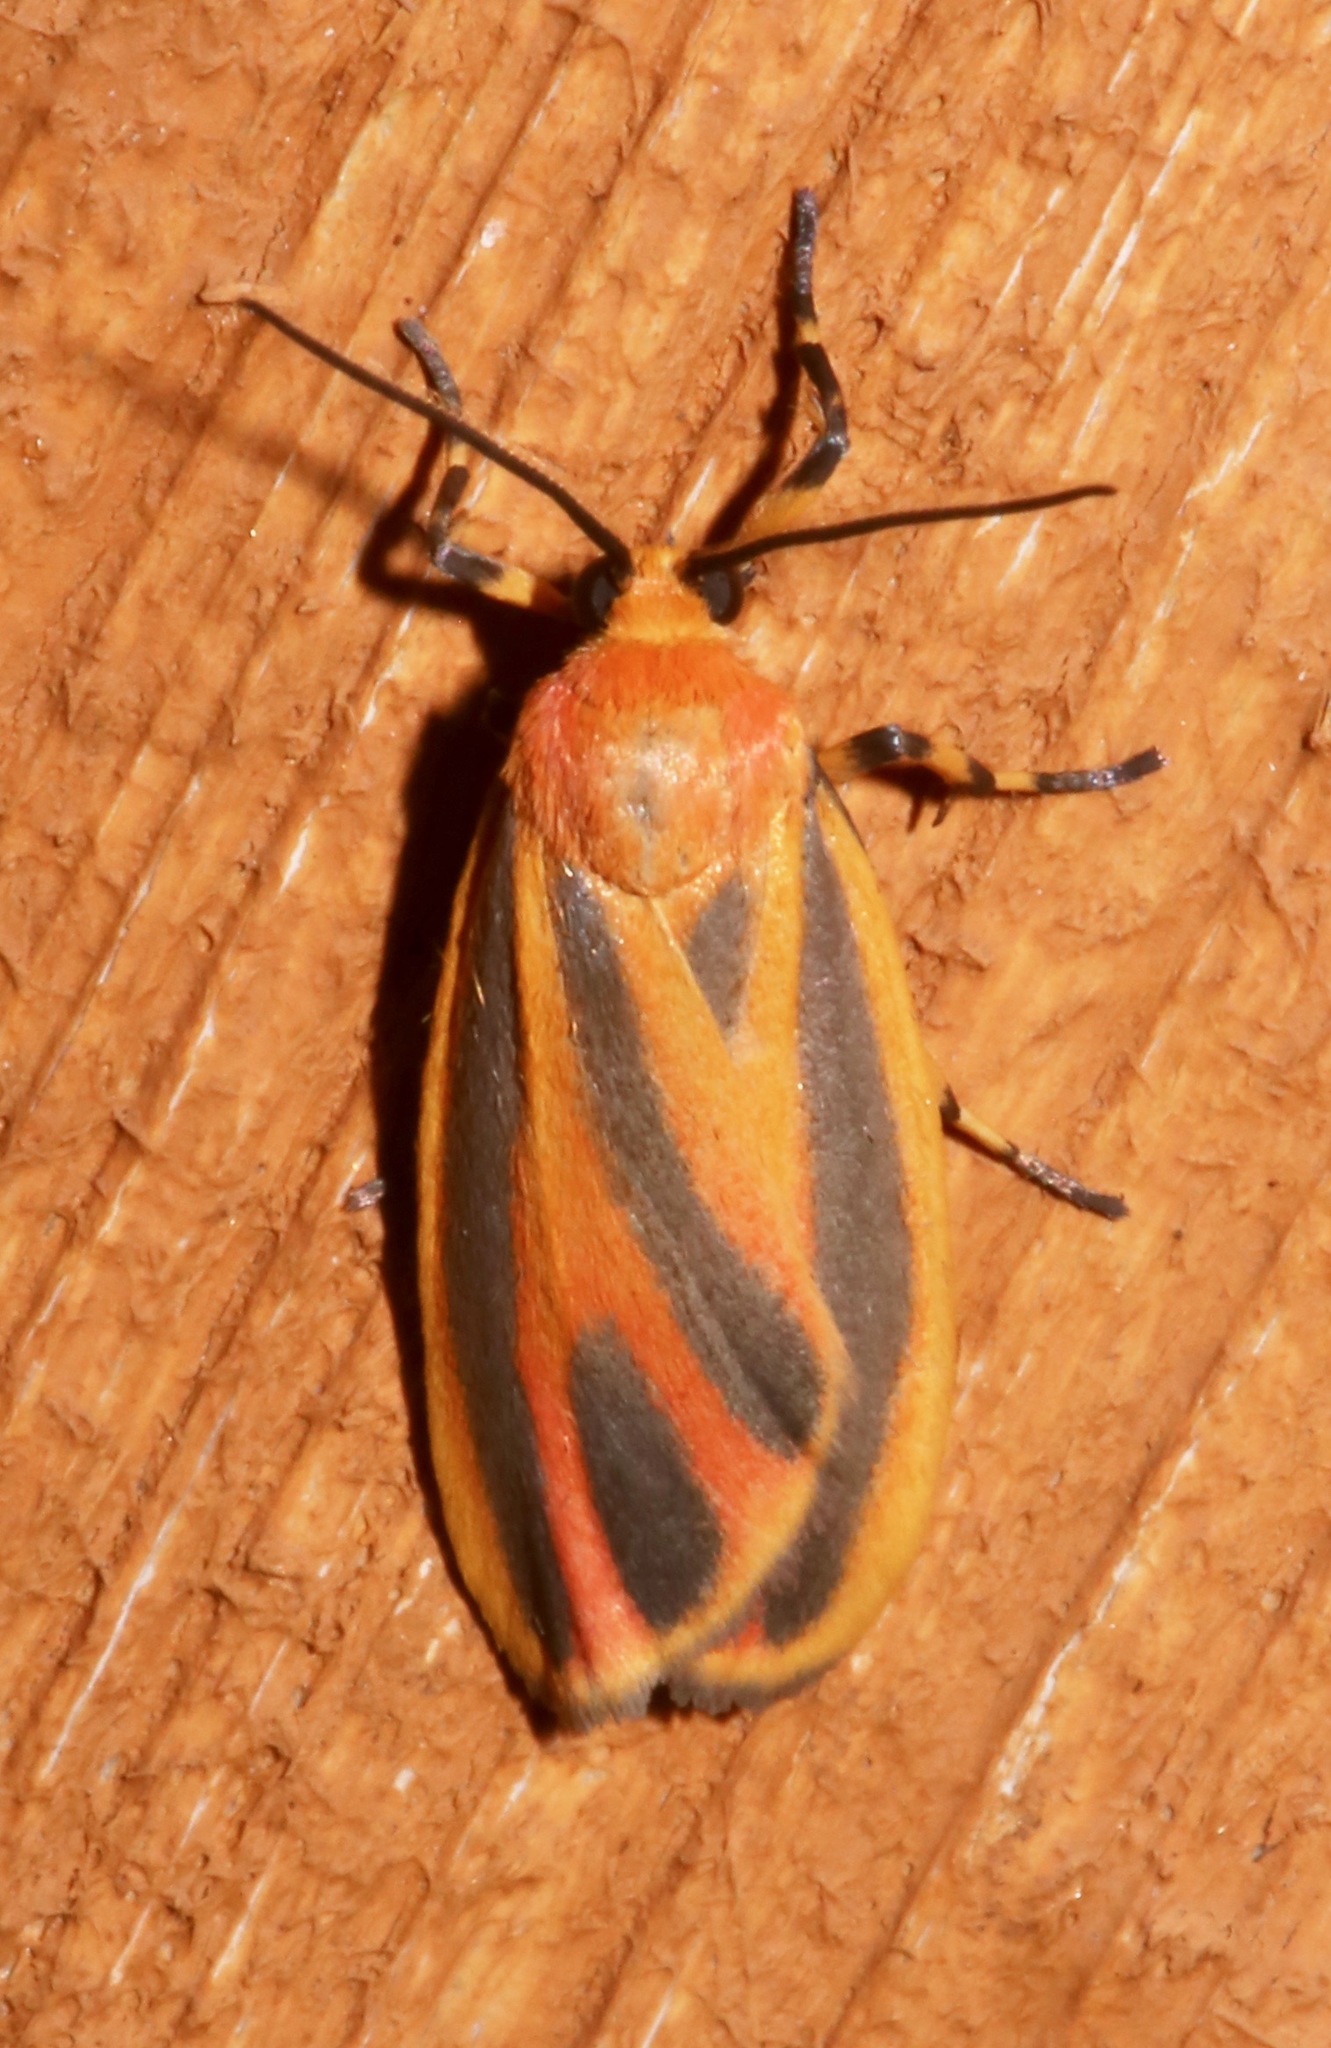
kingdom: Animalia
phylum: Arthropoda
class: Insecta
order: Lepidoptera
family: Erebidae
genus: Hypoprepia
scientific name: Hypoprepia fucosa
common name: Painted lichen moth
